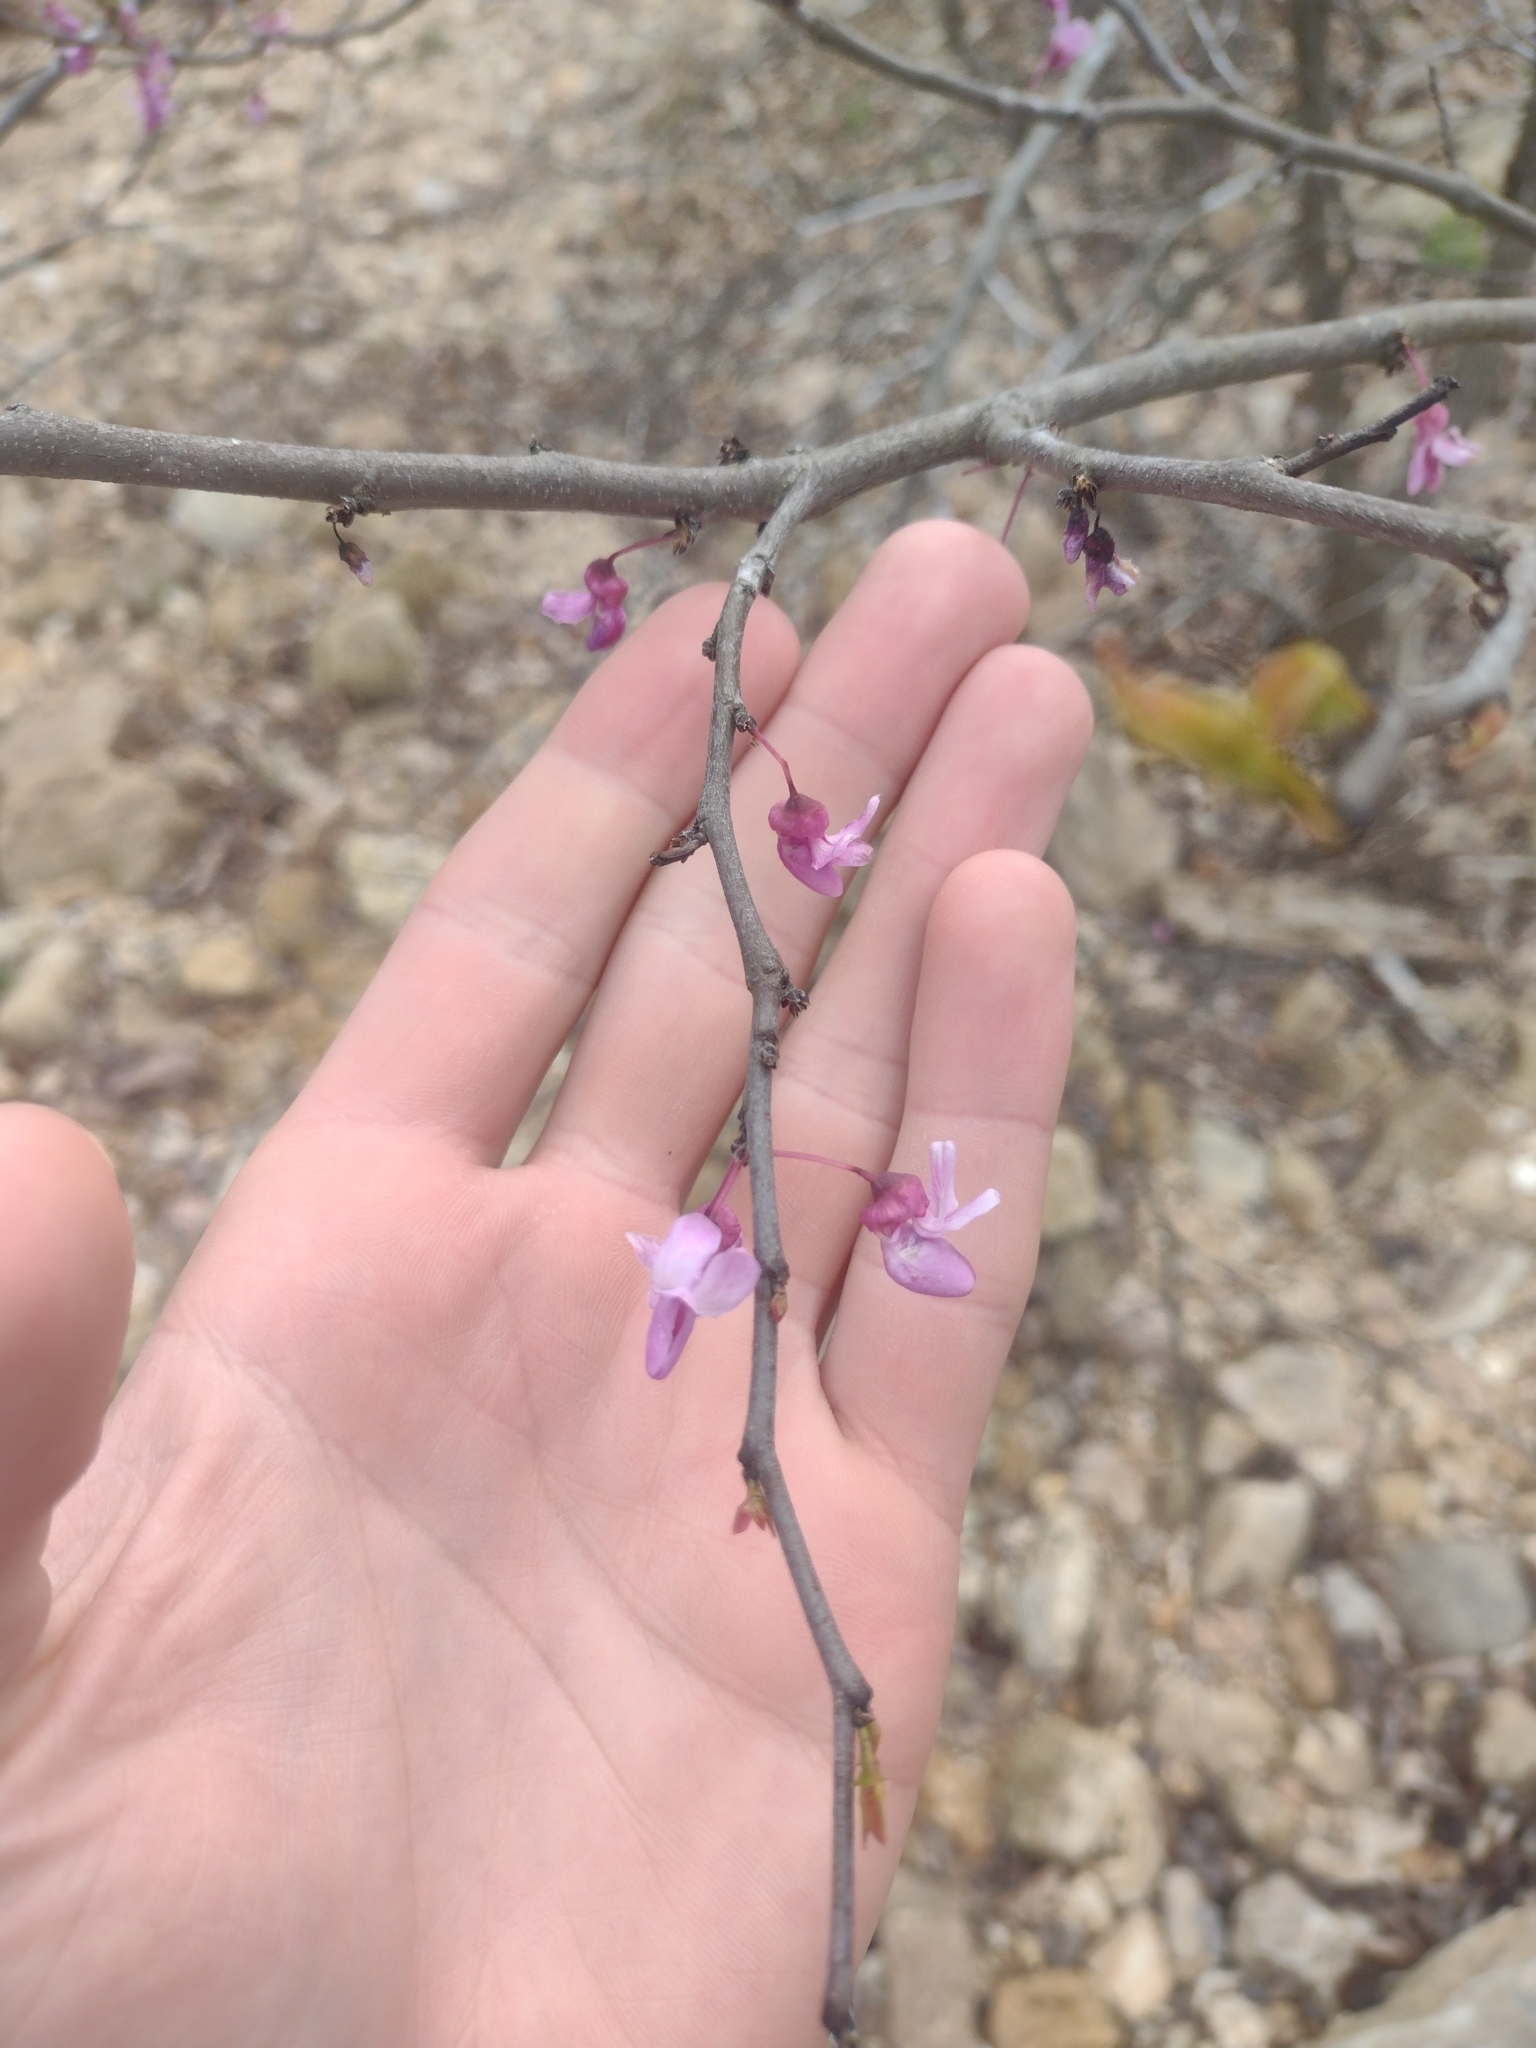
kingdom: Plantae
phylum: Tracheophyta
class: Magnoliopsida
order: Fabales
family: Fabaceae
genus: Cercis
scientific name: Cercis canadensis
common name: Eastern redbud
